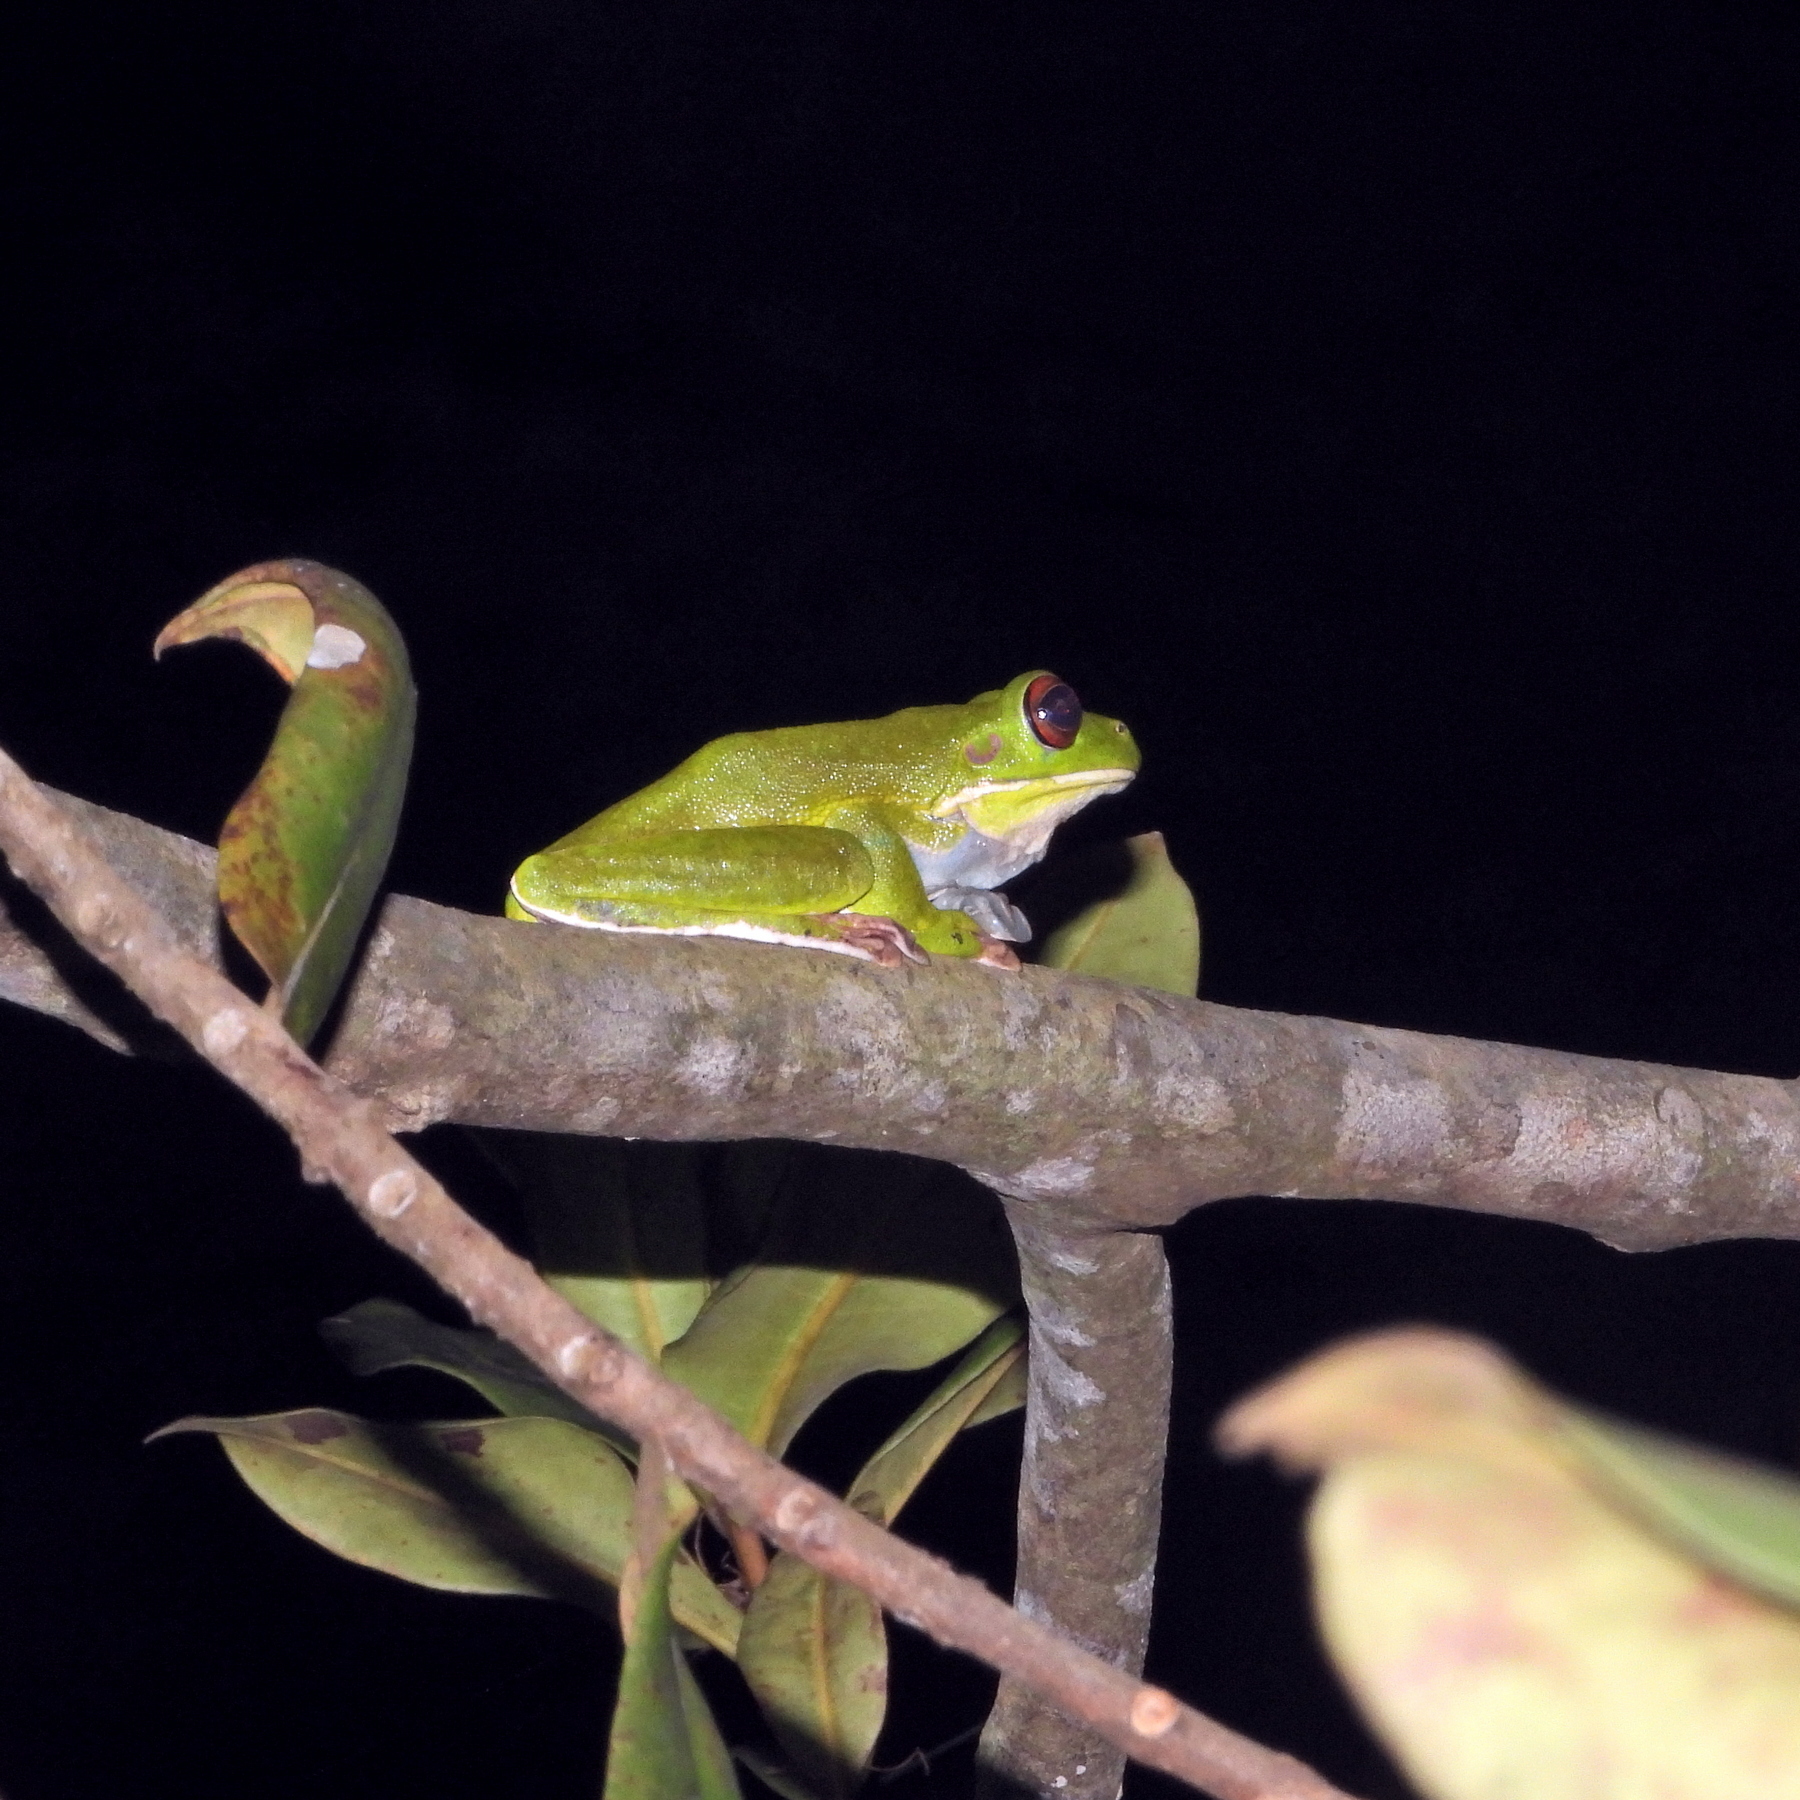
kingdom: Animalia
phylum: Chordata
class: Amphibia
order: Anura
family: Pelodryadidae
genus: Nyctimystes
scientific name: Nyctimystes
